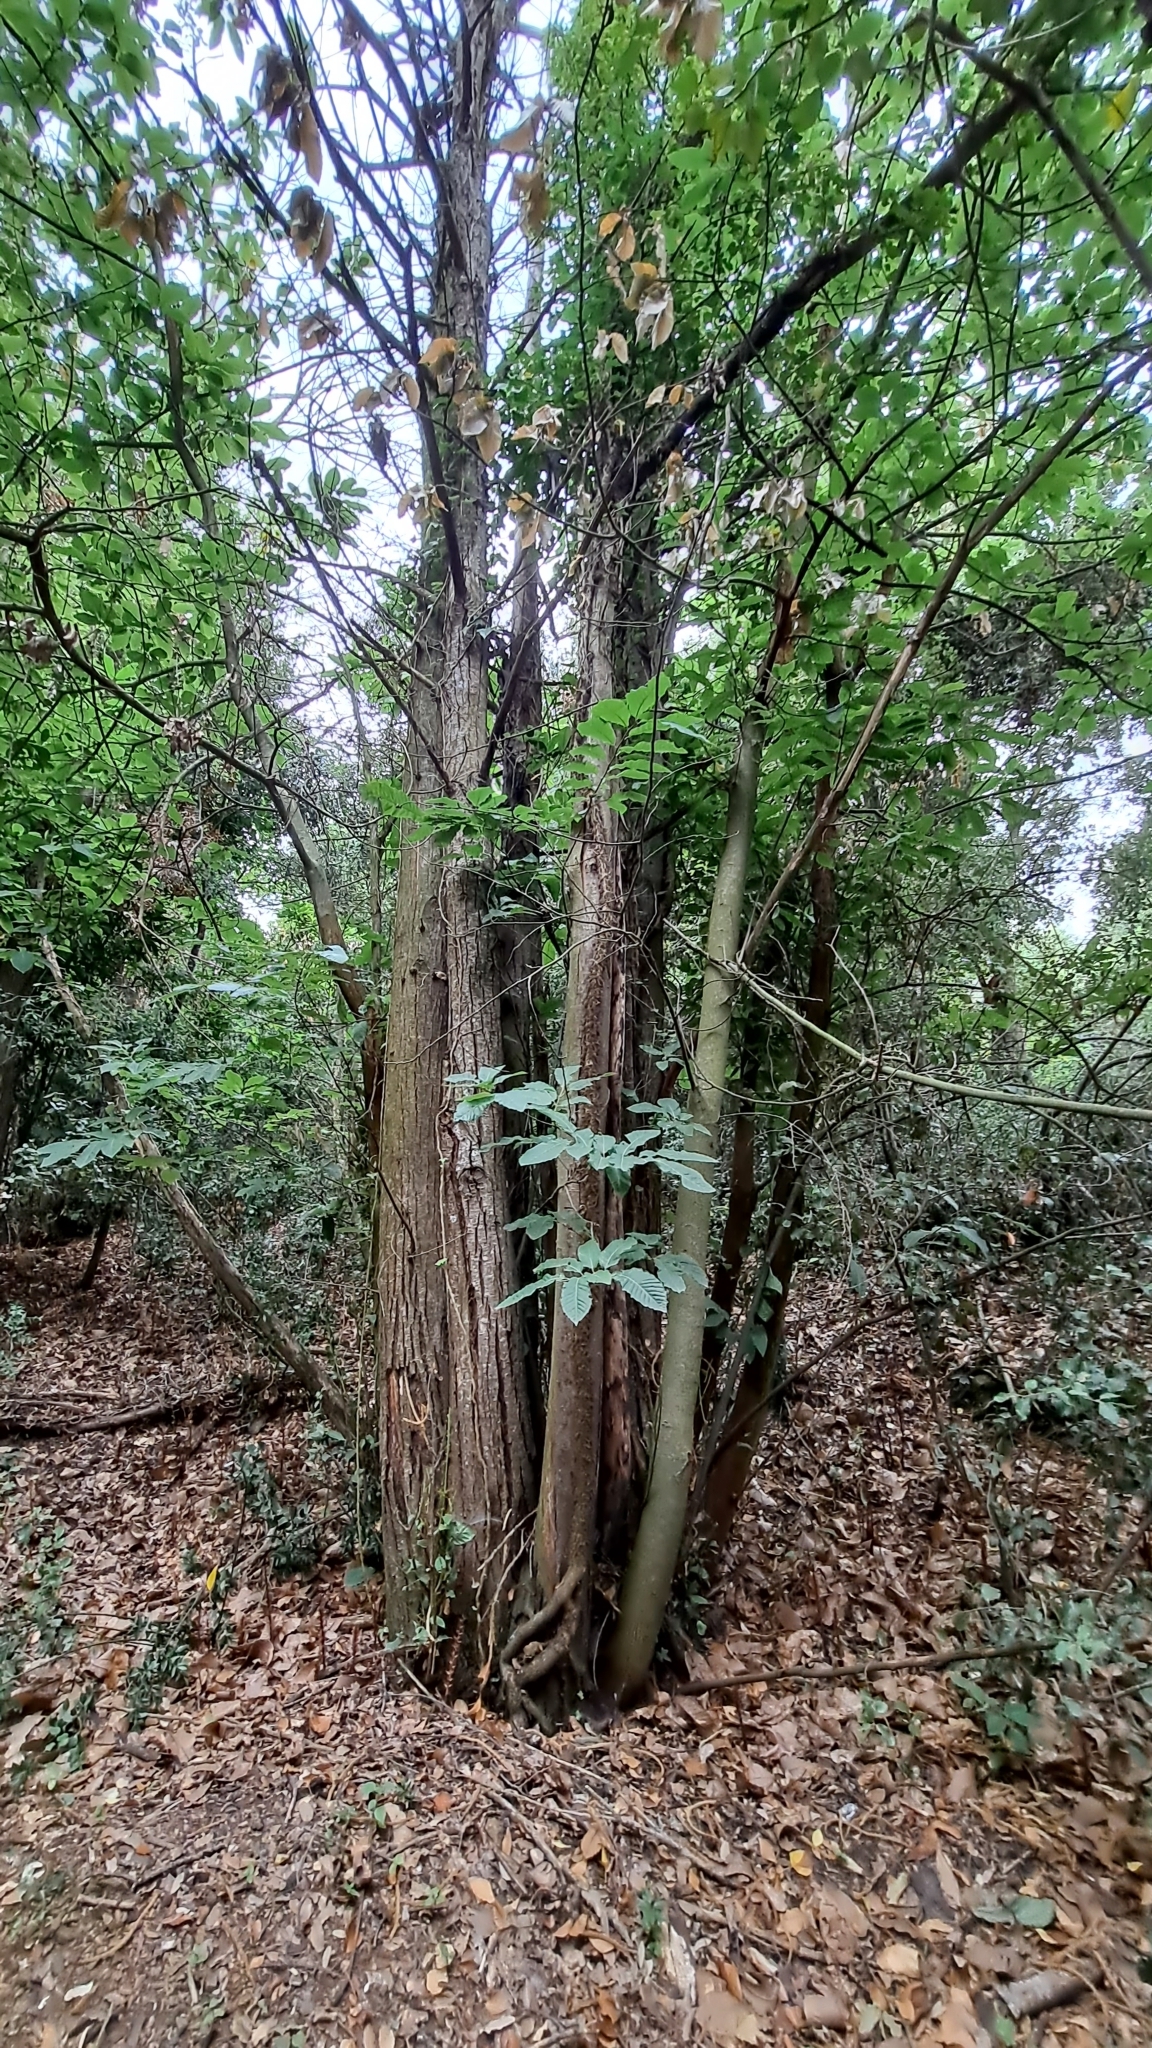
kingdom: Plantae
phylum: Tracheophyta
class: Magnoliopsida
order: Fagales
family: Fagaceae
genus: Castanea
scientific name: Castanea sativa
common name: Sweet chestnut
